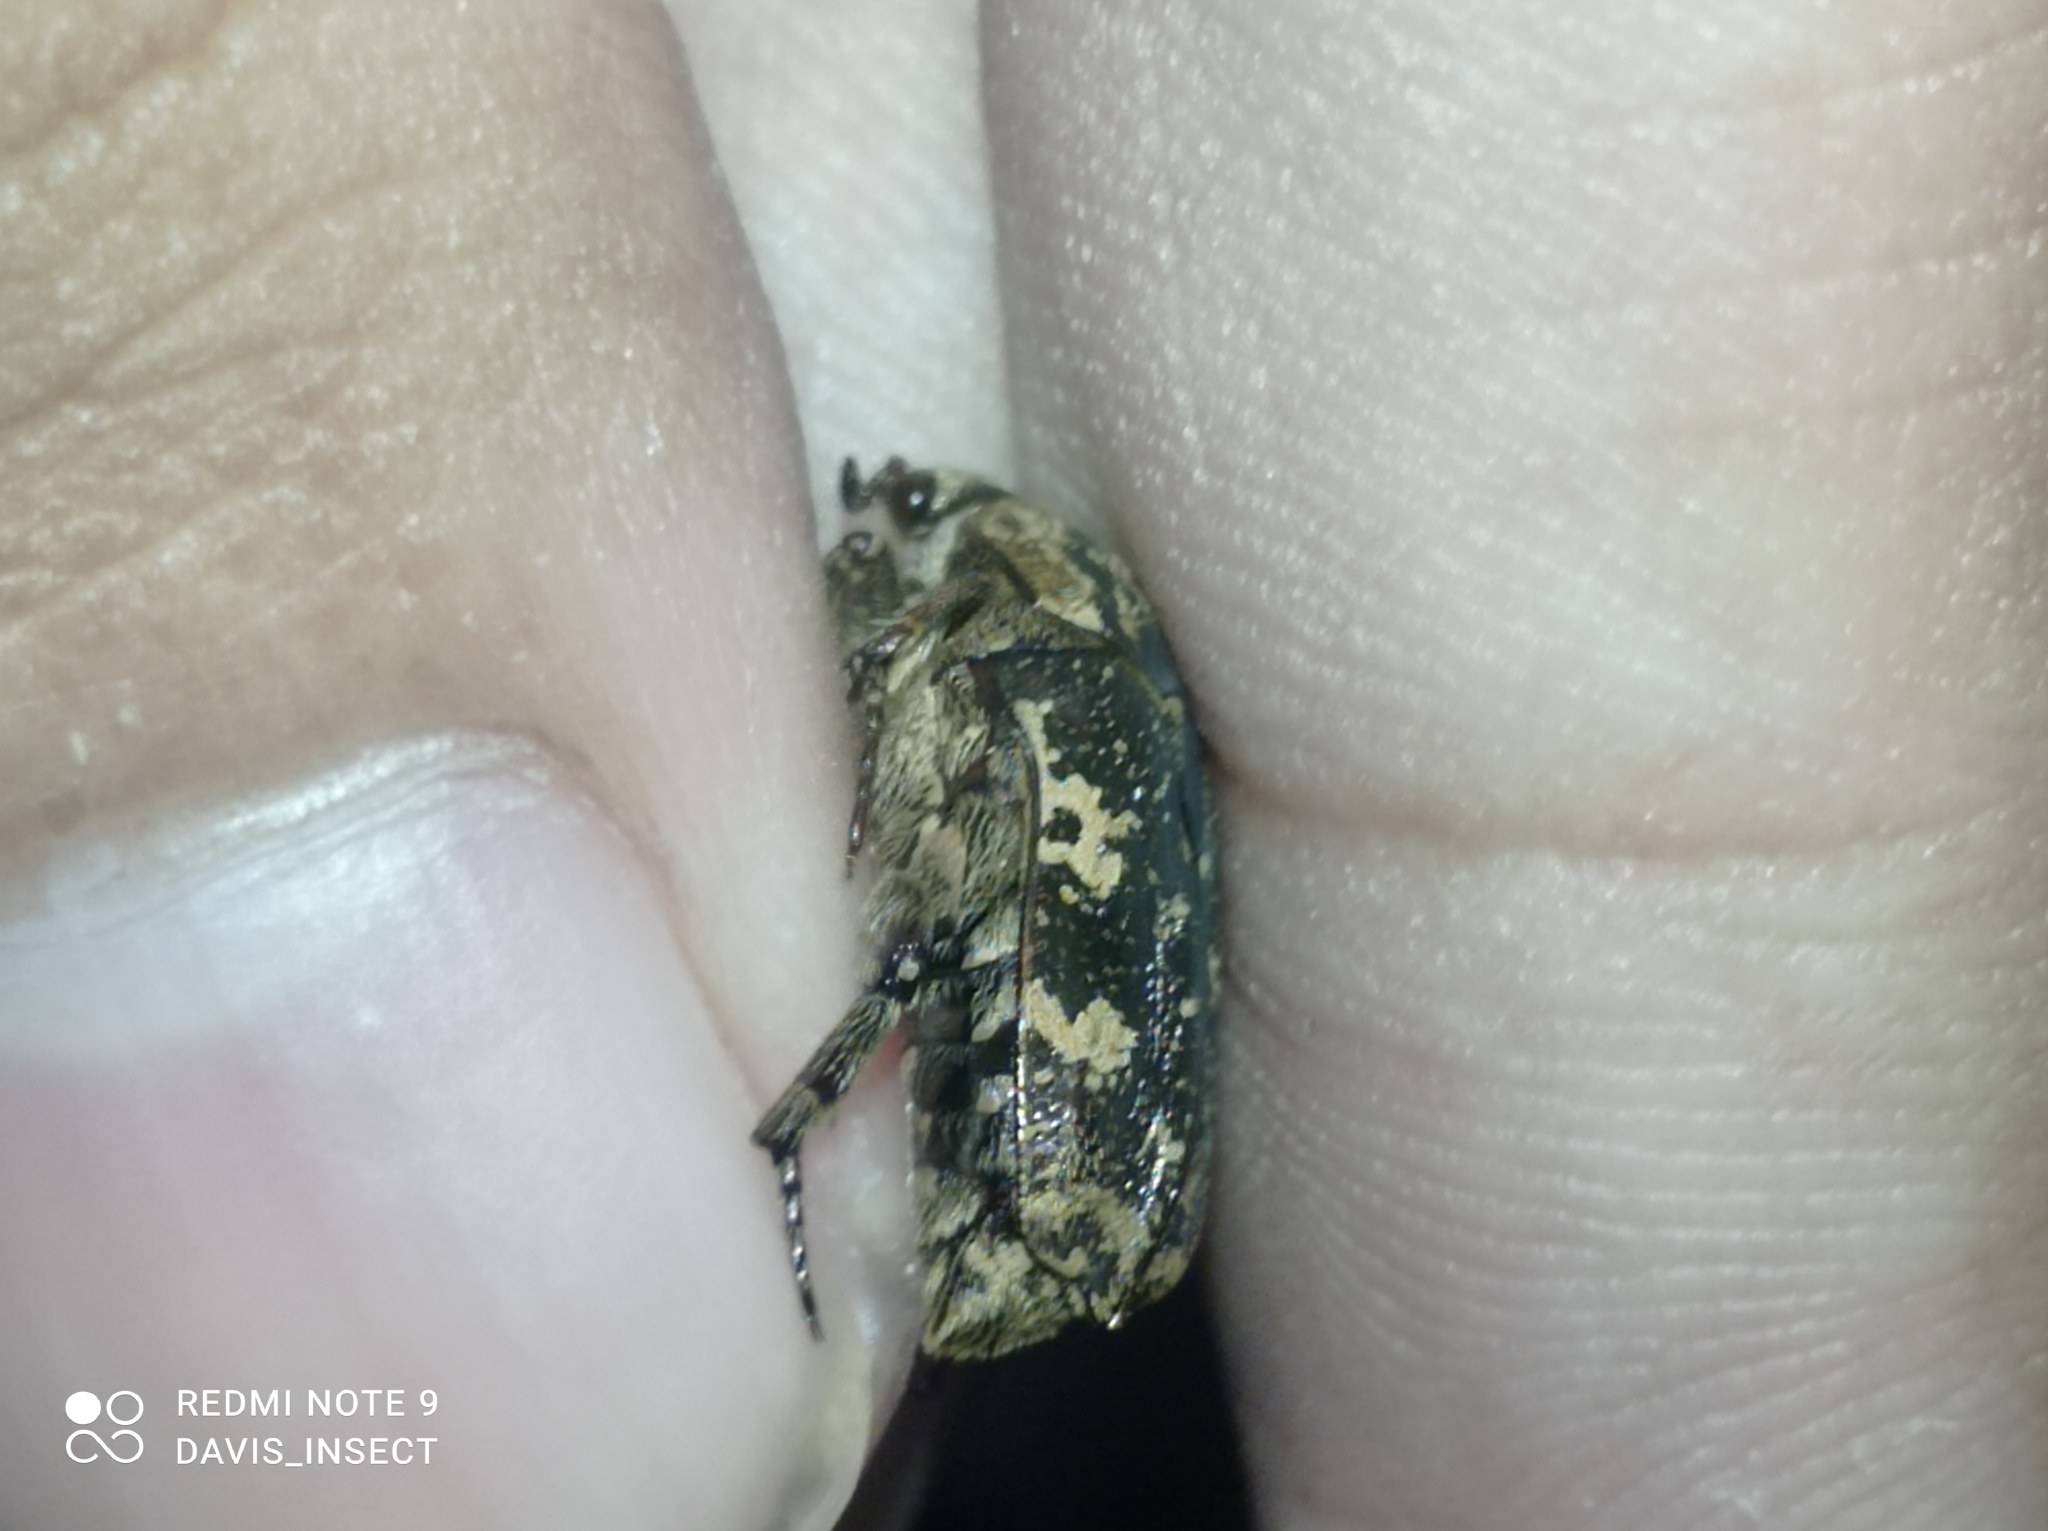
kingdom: Animalia
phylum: Arthropoda
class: Insecta
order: Coleoptera
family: Scarabaeidae
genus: Protaetia
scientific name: Protaetia fusca
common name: Mango flower beetle
